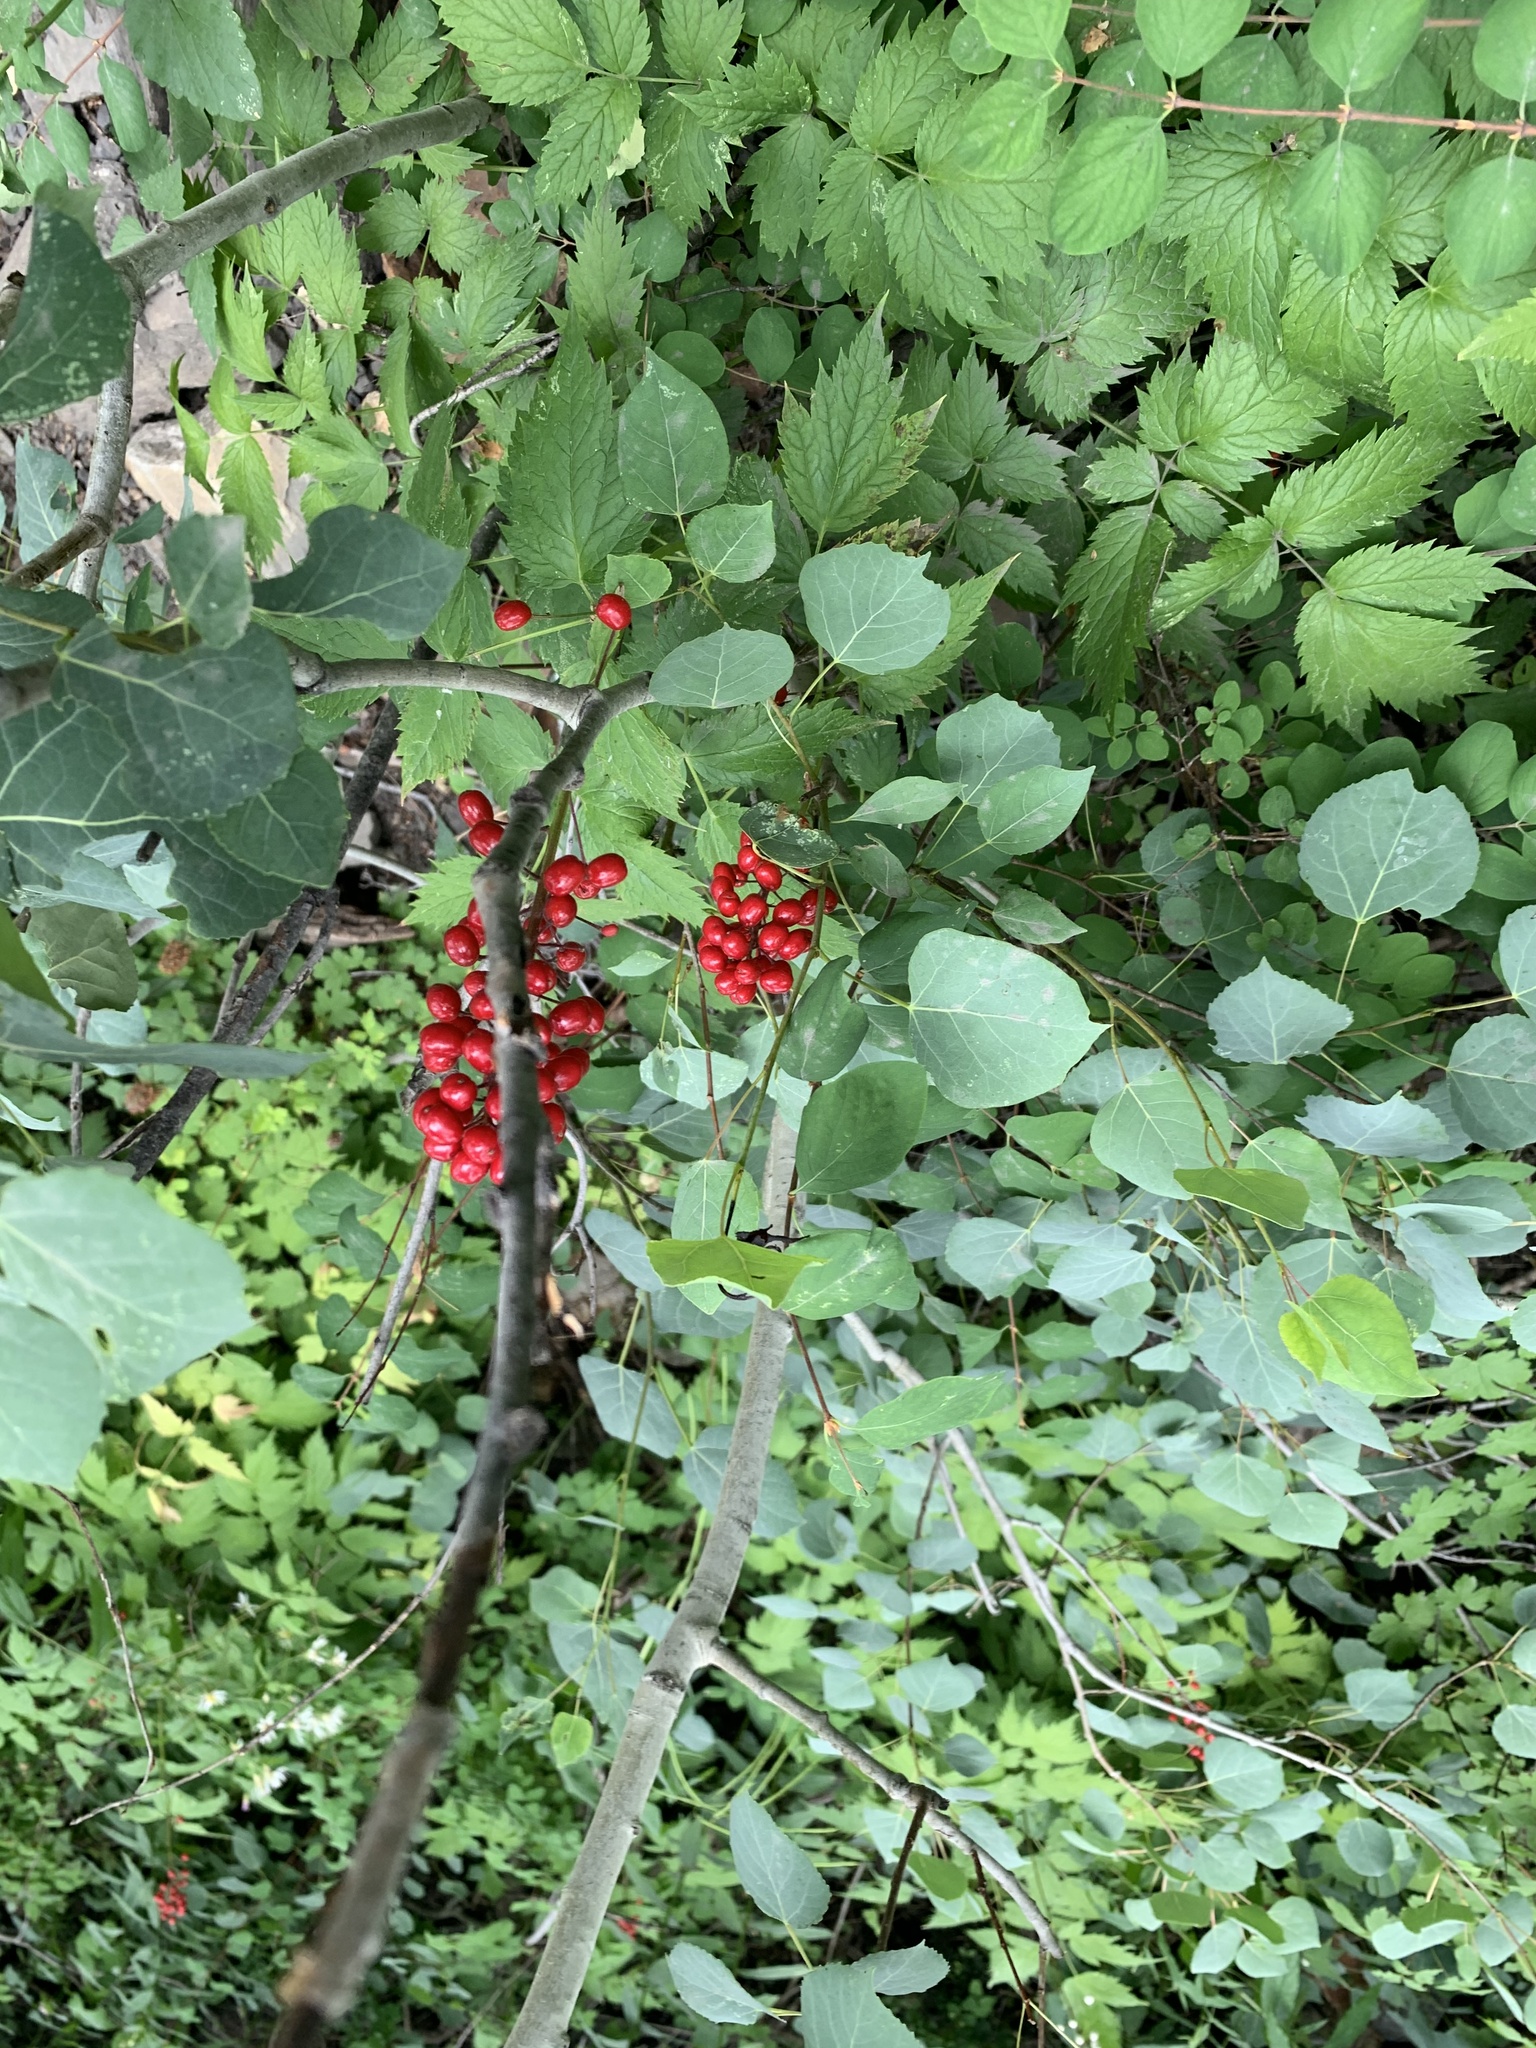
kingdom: Plantae
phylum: Tracheophyta
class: Magnoliopsida
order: Ranunculales
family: Ranunculaceae
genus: Actaea
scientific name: Actaea rubra
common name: Red baneberry
